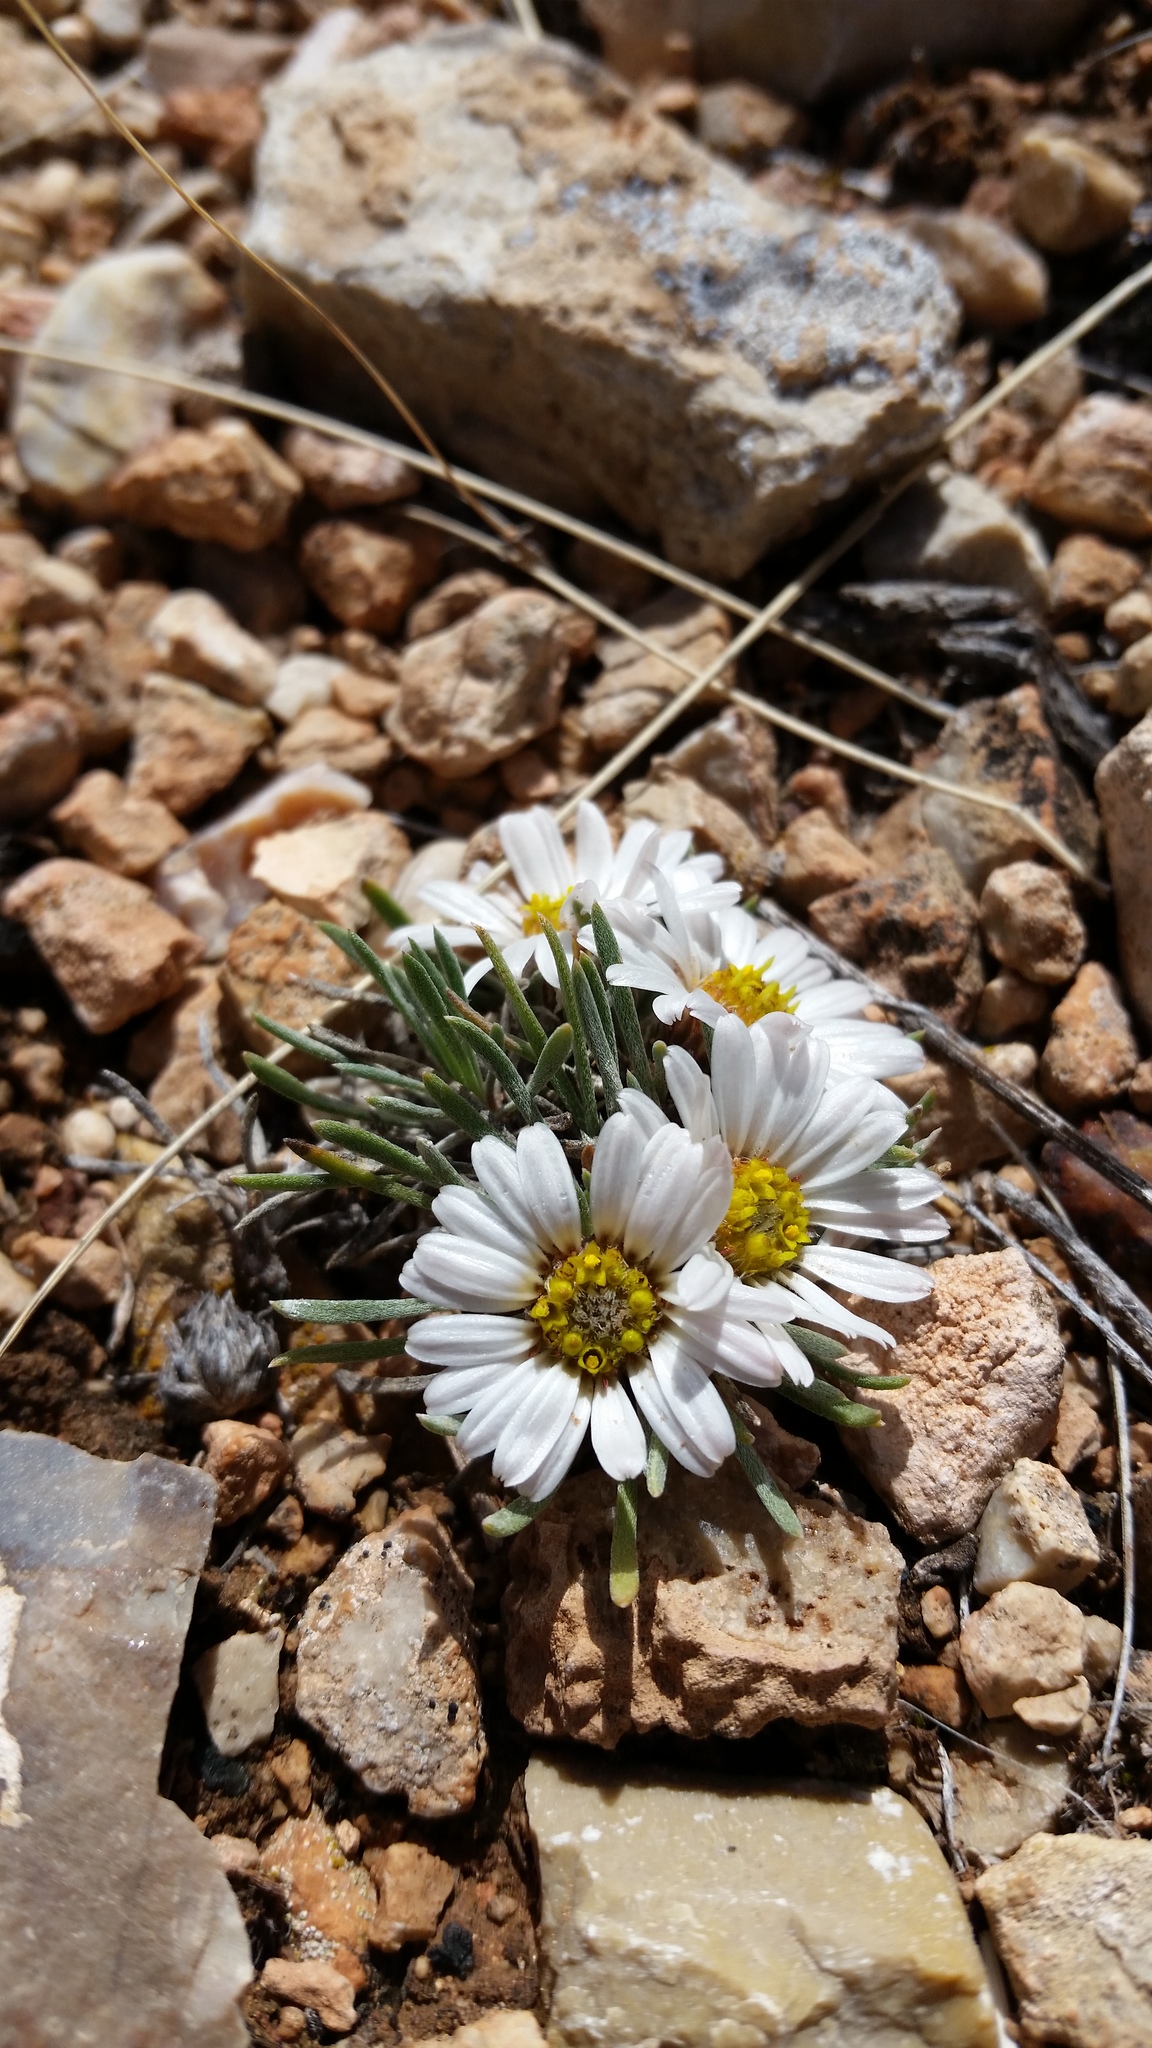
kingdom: Plantae
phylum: Tracheophyta
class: Magnoliopsida
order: Asterales
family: Asteraceae
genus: Townsendia
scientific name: Townsendia hookeri
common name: Hooker's townsend daisy
